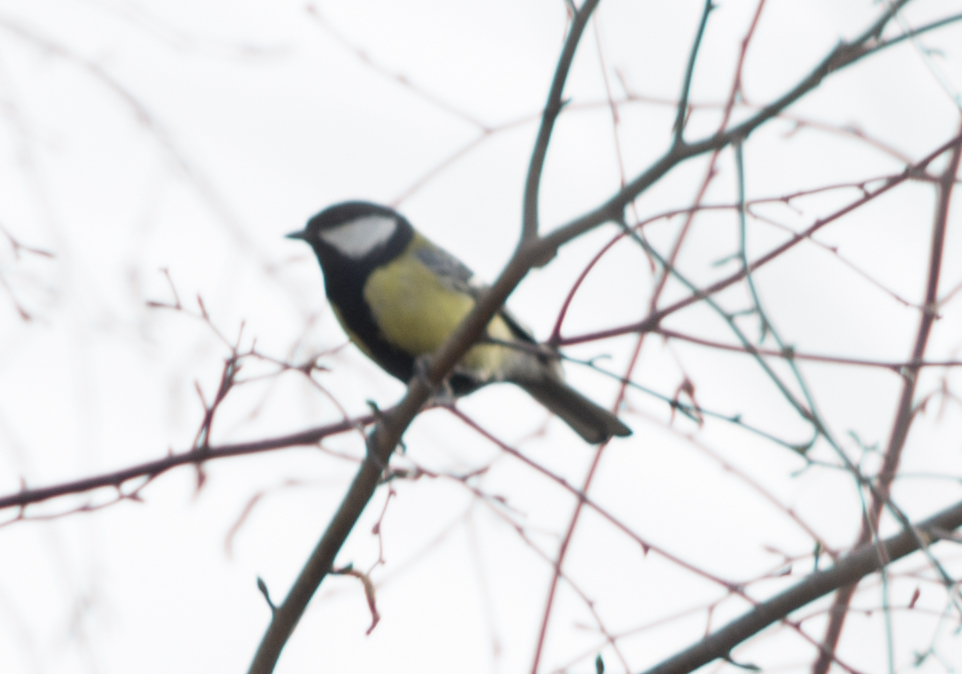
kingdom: Animalia
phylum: Chordata
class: Aves
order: Passeriformes
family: Paridae
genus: Parus
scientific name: Parus major
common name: Great tit
